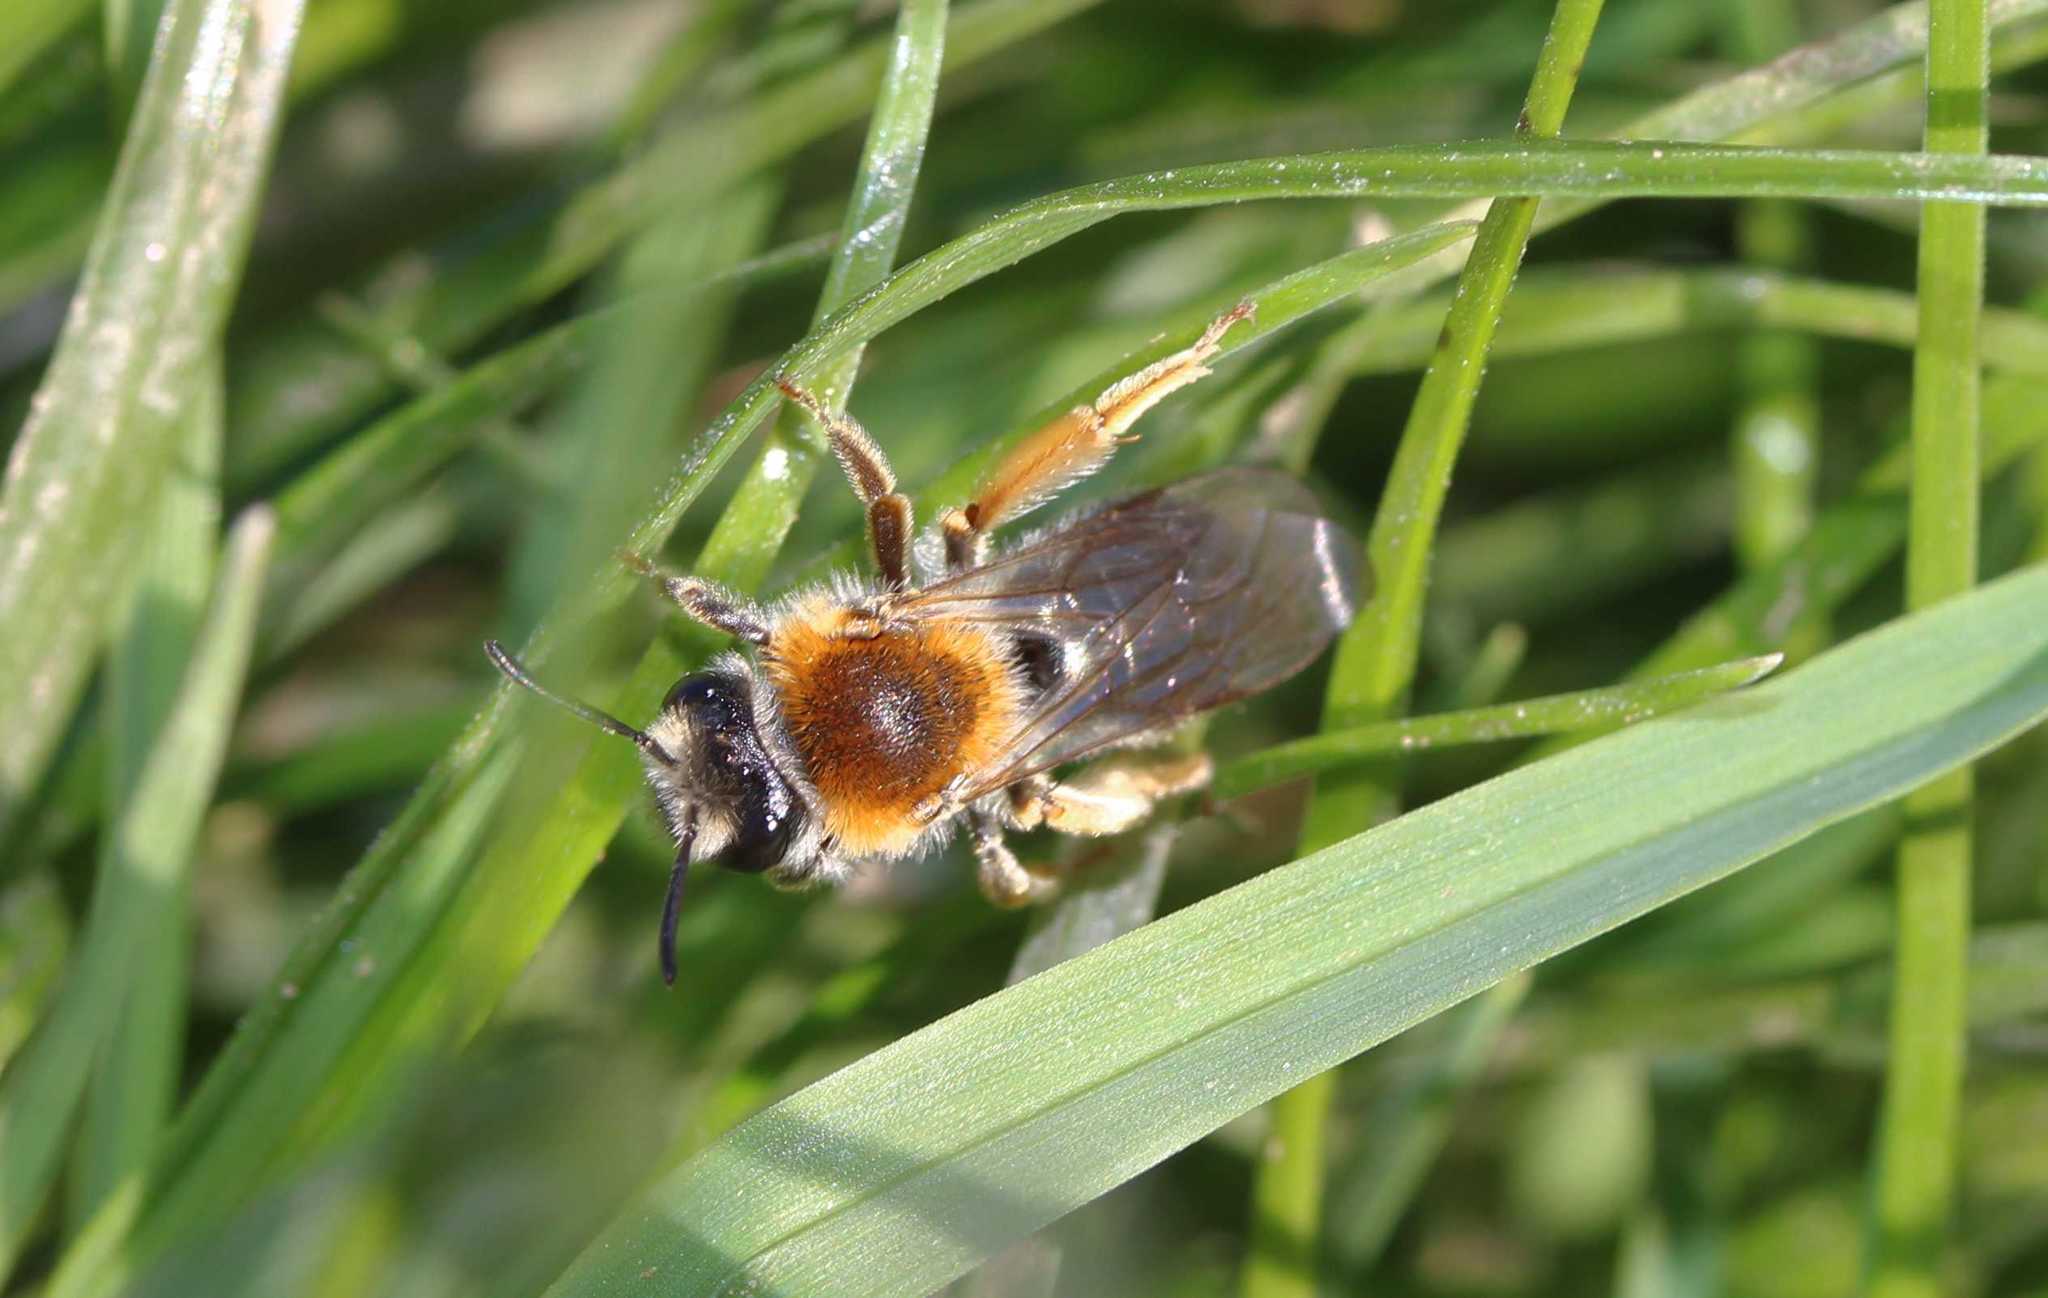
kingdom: Animalia
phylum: Arthropoda
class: Insecta
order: Hymenoptera
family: Andrenidae
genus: Andrena
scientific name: Andrena haemorrhoa
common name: Early mining bee
